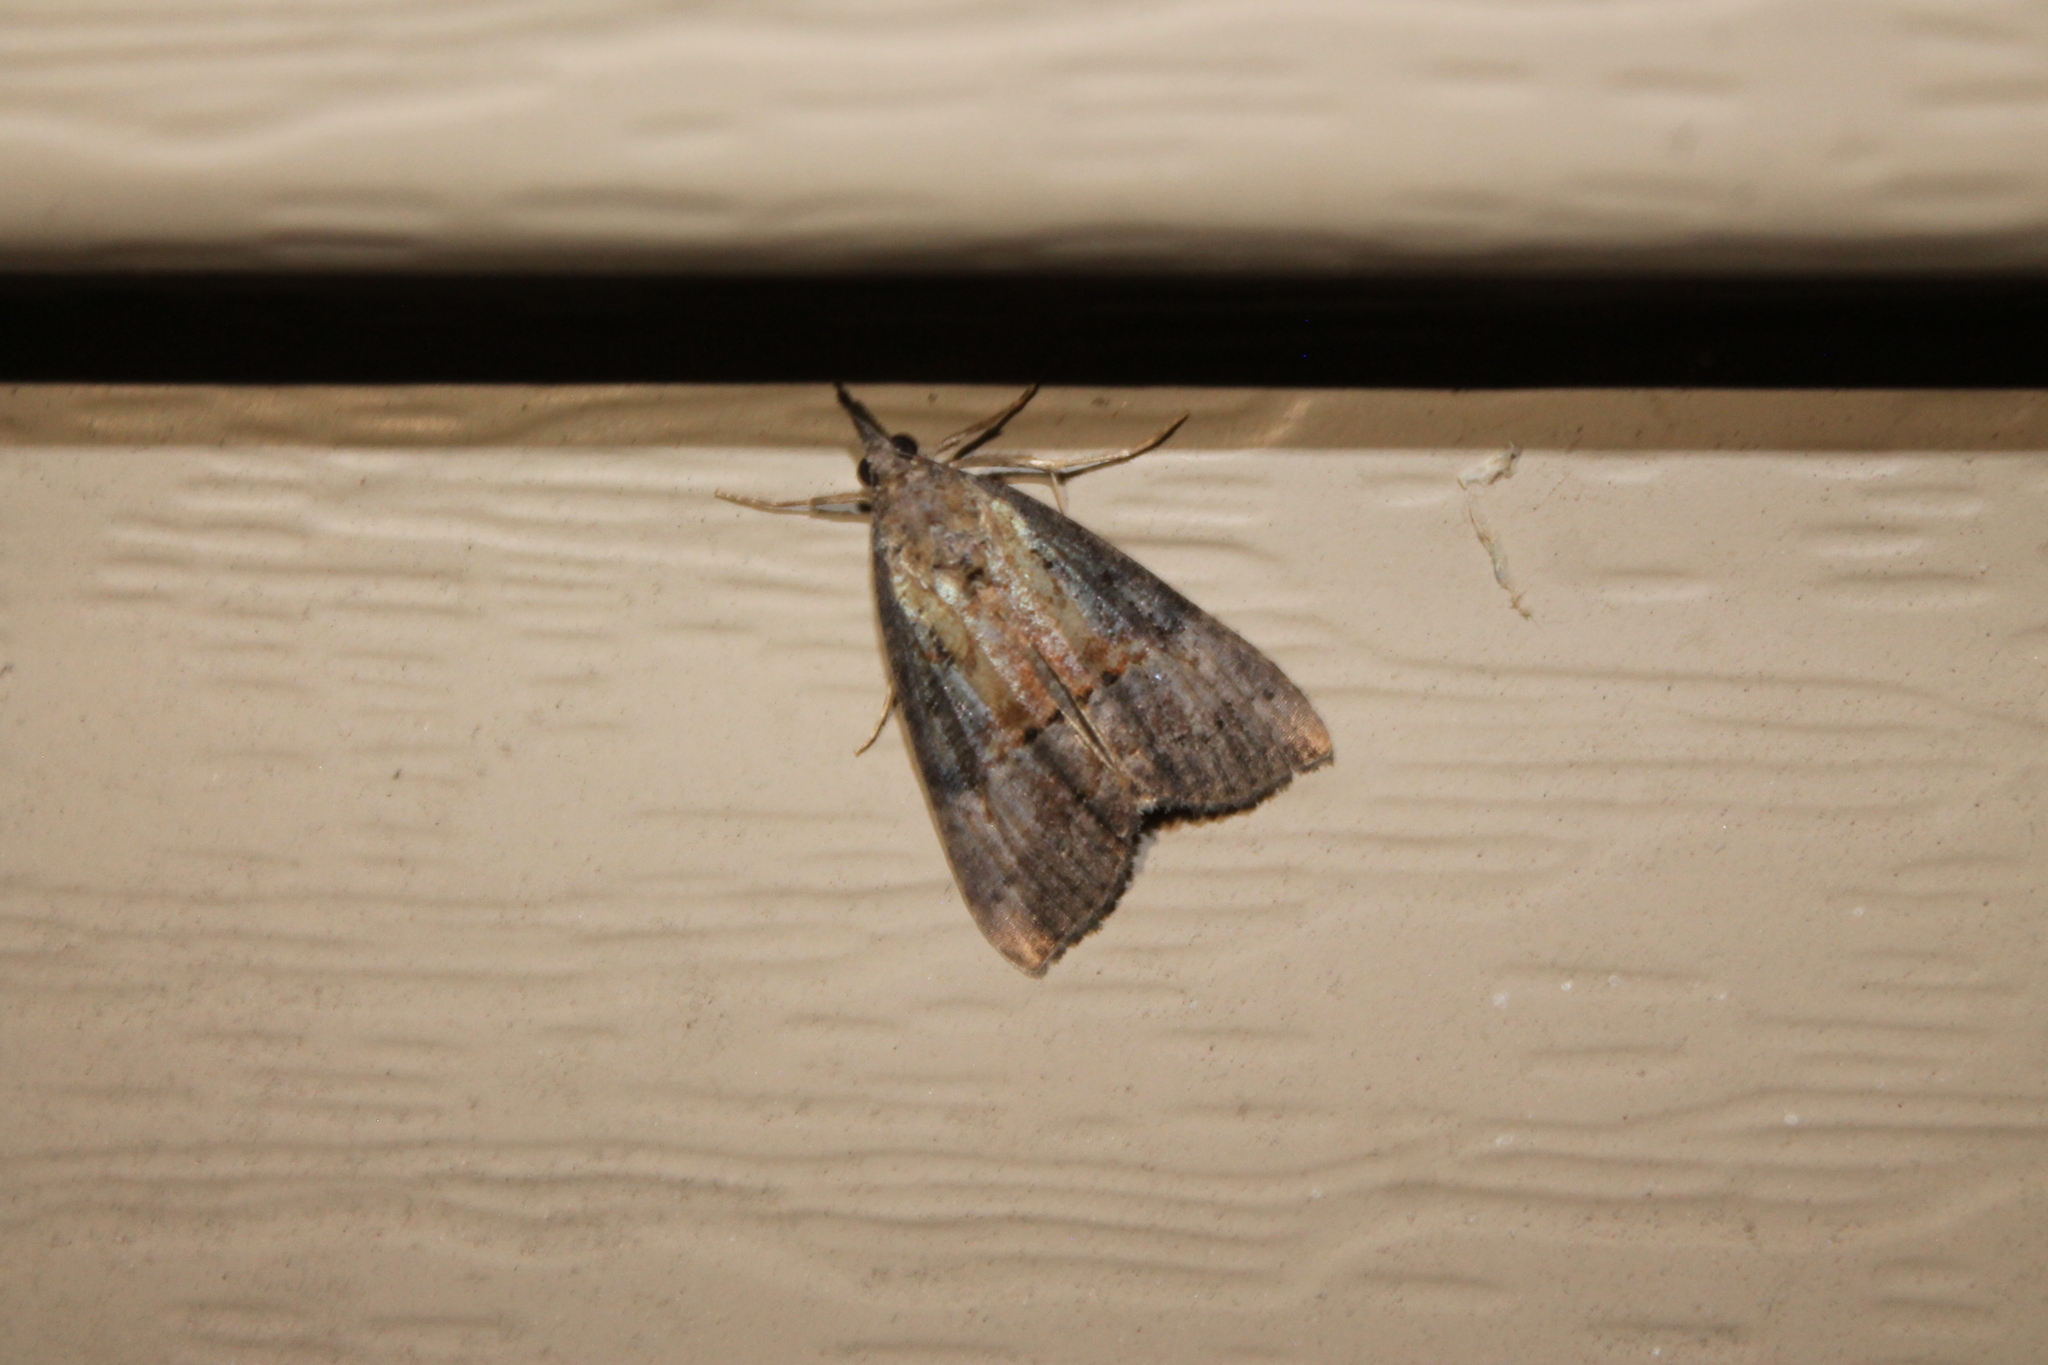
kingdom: Animalia
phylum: Arthropoda
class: Insecta
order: Lepidoptera
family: Erebidae
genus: Hypena
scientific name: Hypena scabra
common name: Green cloverworm
